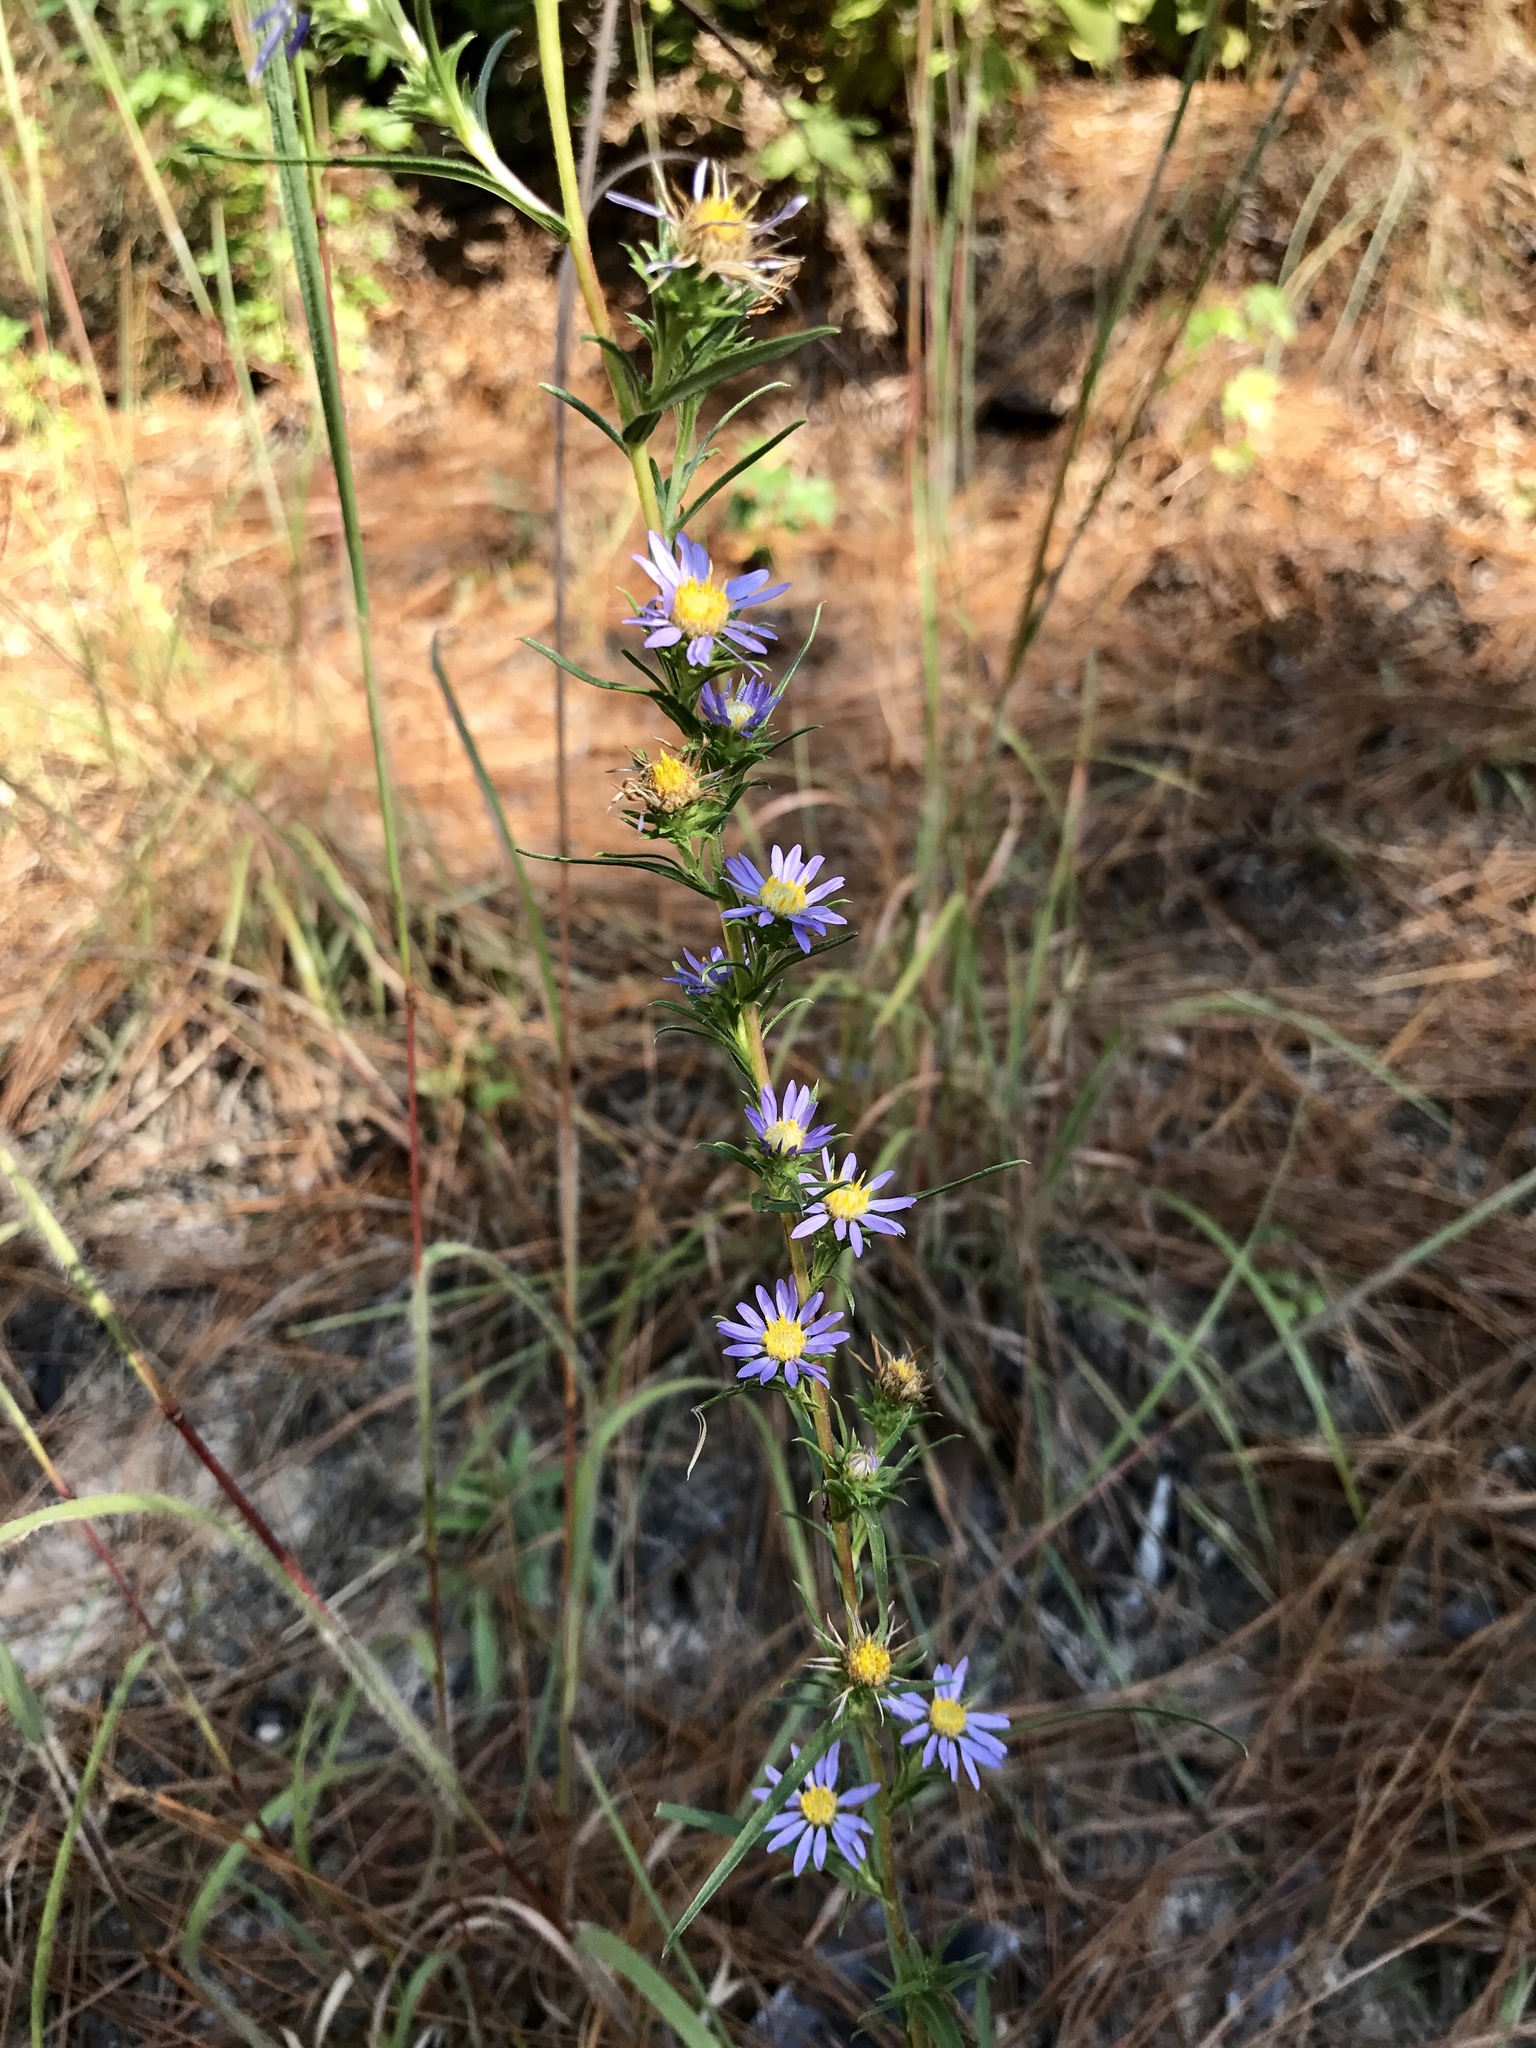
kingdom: Plantae
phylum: Tracheophyta
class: Magnoliopsida
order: Asterales
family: Asteraceae
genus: Eurybia
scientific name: Eurybia hemispherica
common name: Showy aster
